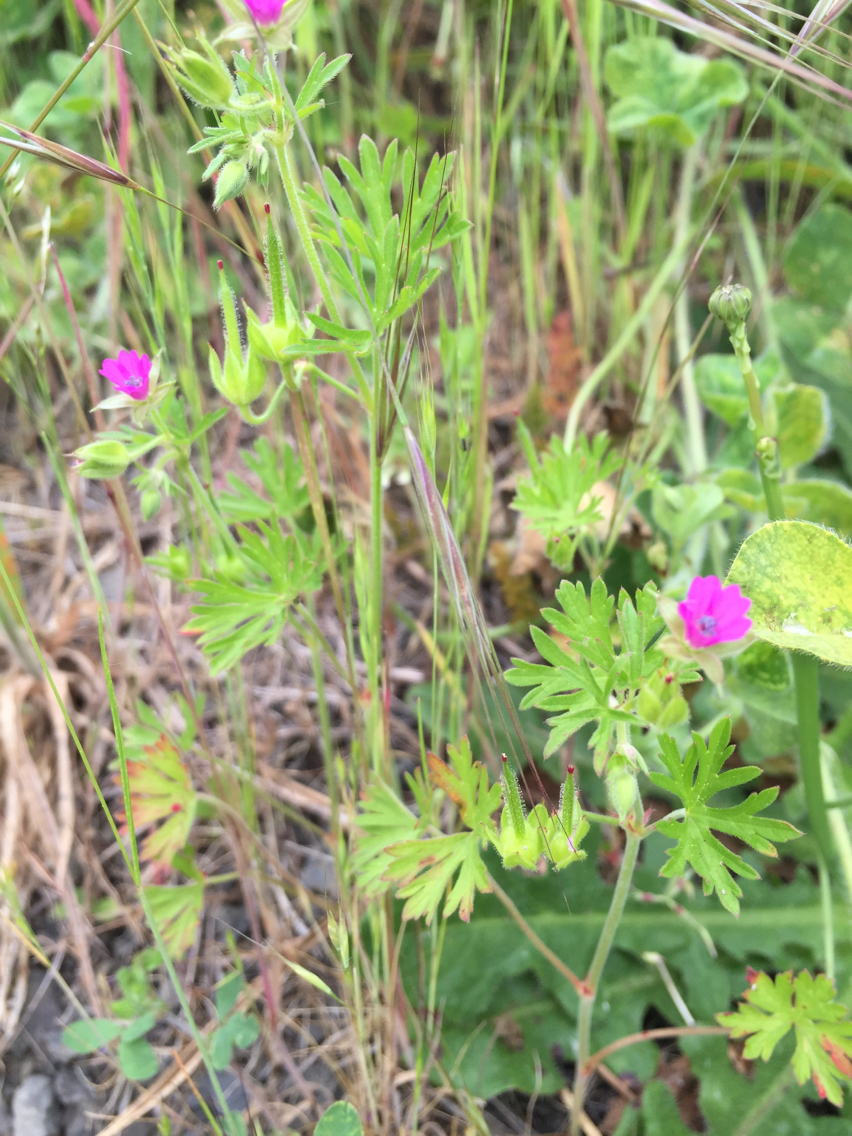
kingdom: Plantae
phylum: Tracheophyta
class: Magnoliopsida
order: Geraniales
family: Geraniaceae
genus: Geranium
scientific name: Geranium dissectum
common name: Cut-leaved crane's-bill
